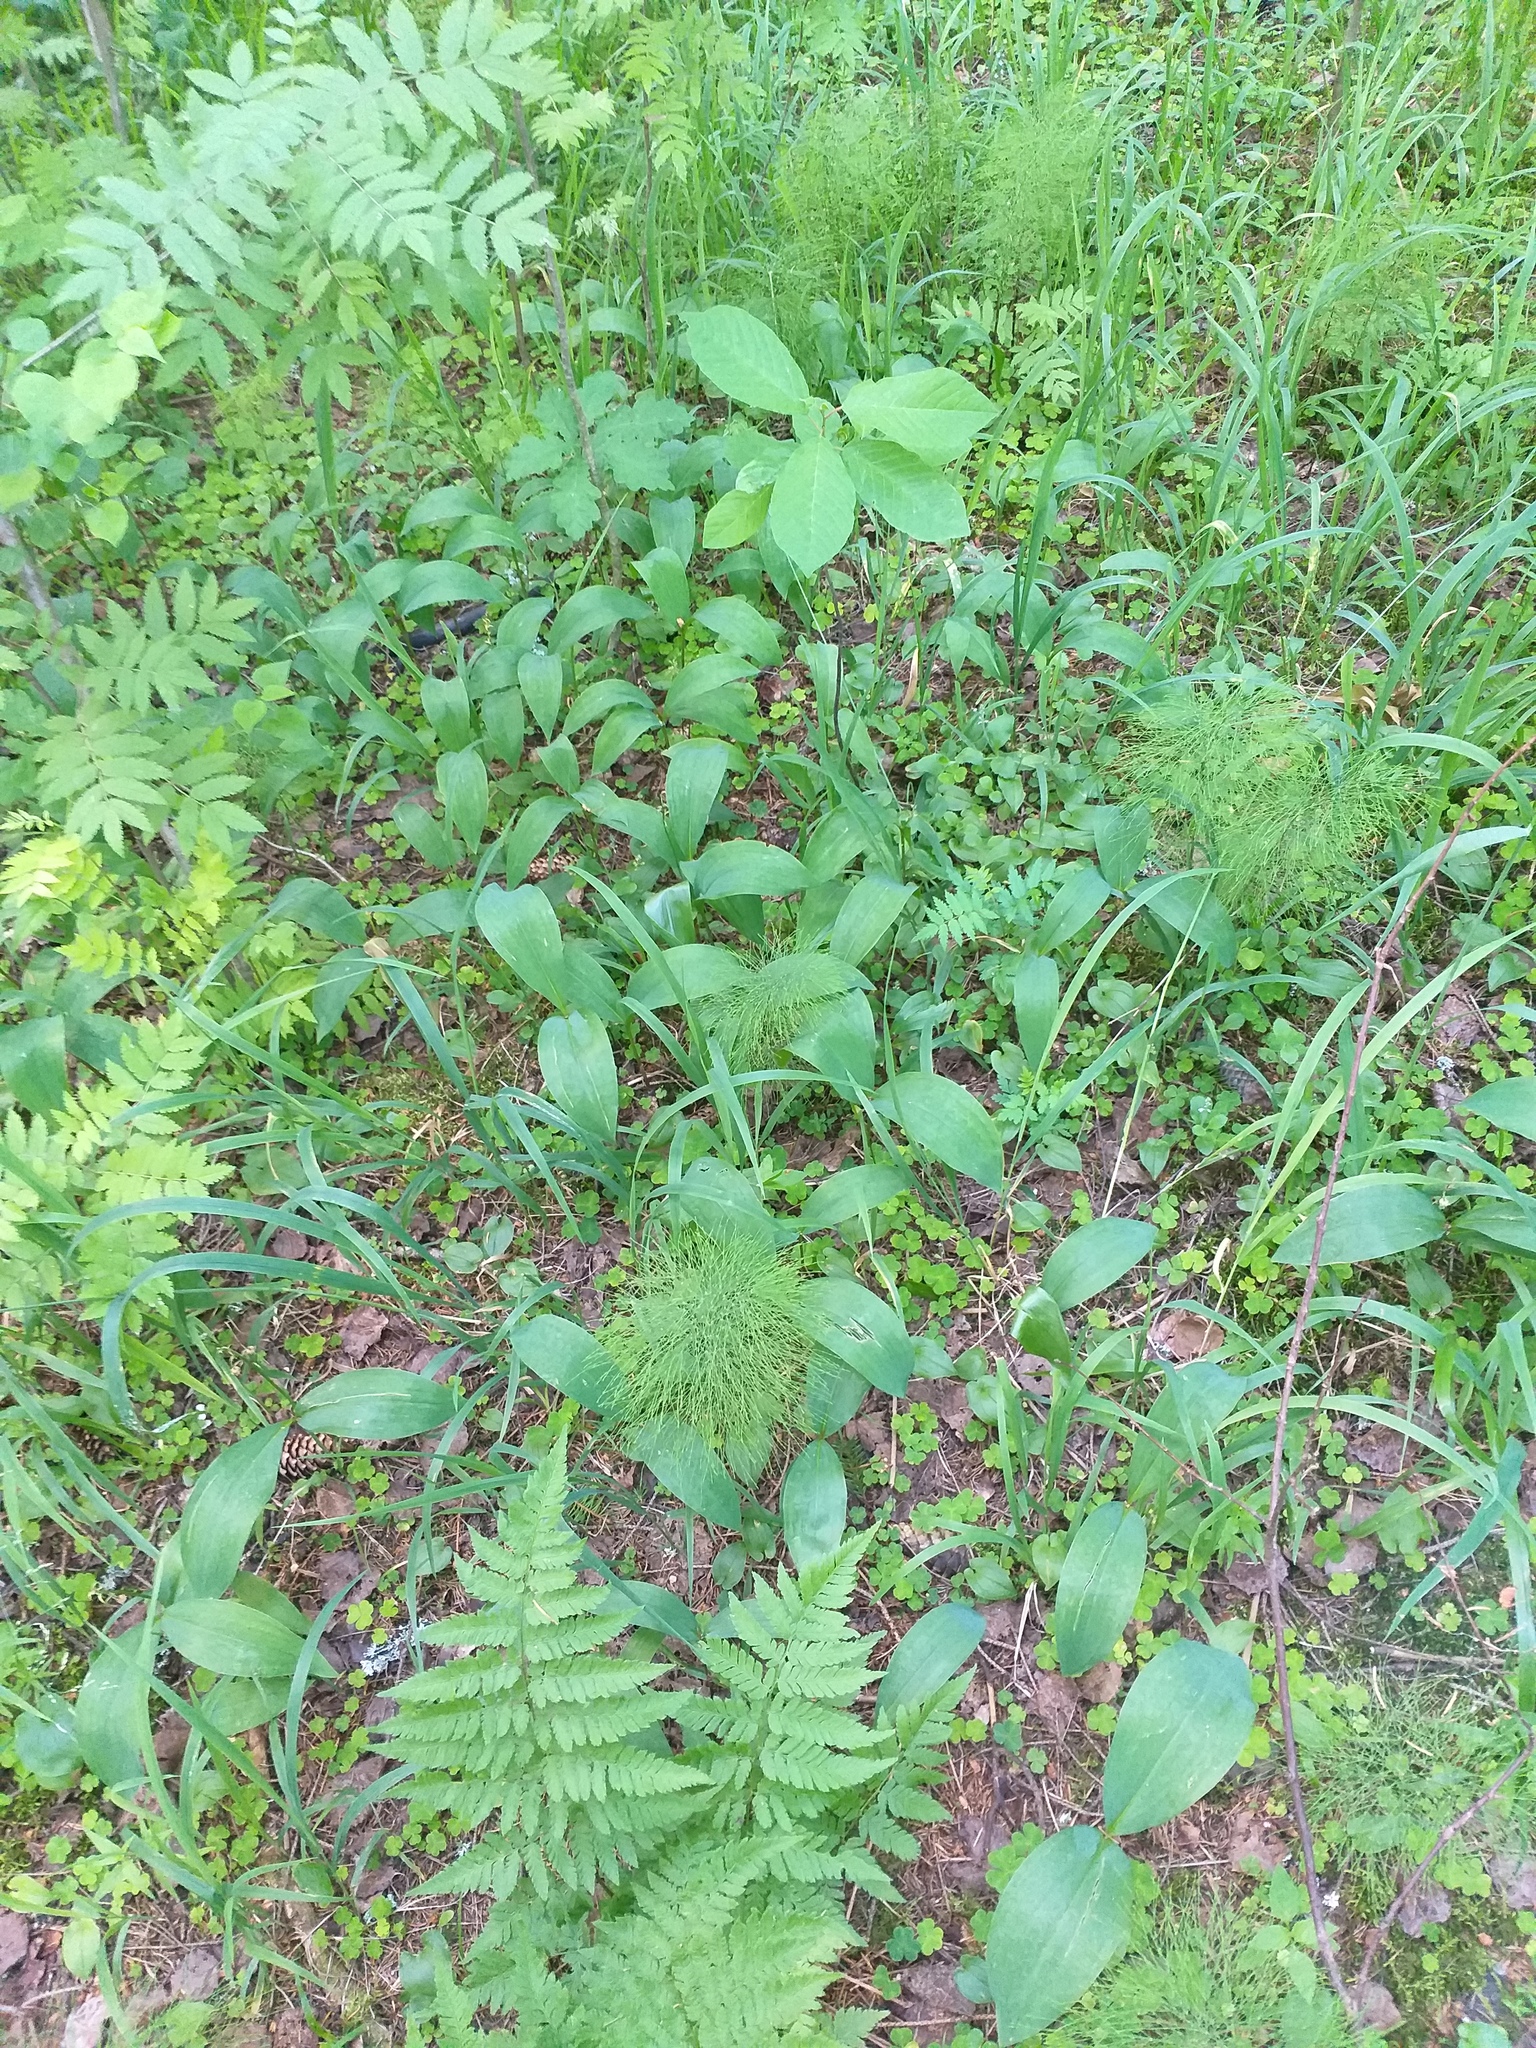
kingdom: Plantae
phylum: Tracheophyta
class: Liliopsida
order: Asparagales
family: Asparagaceae
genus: Convallaria
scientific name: Convallaria majalis
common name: Lily-of-the-valley
